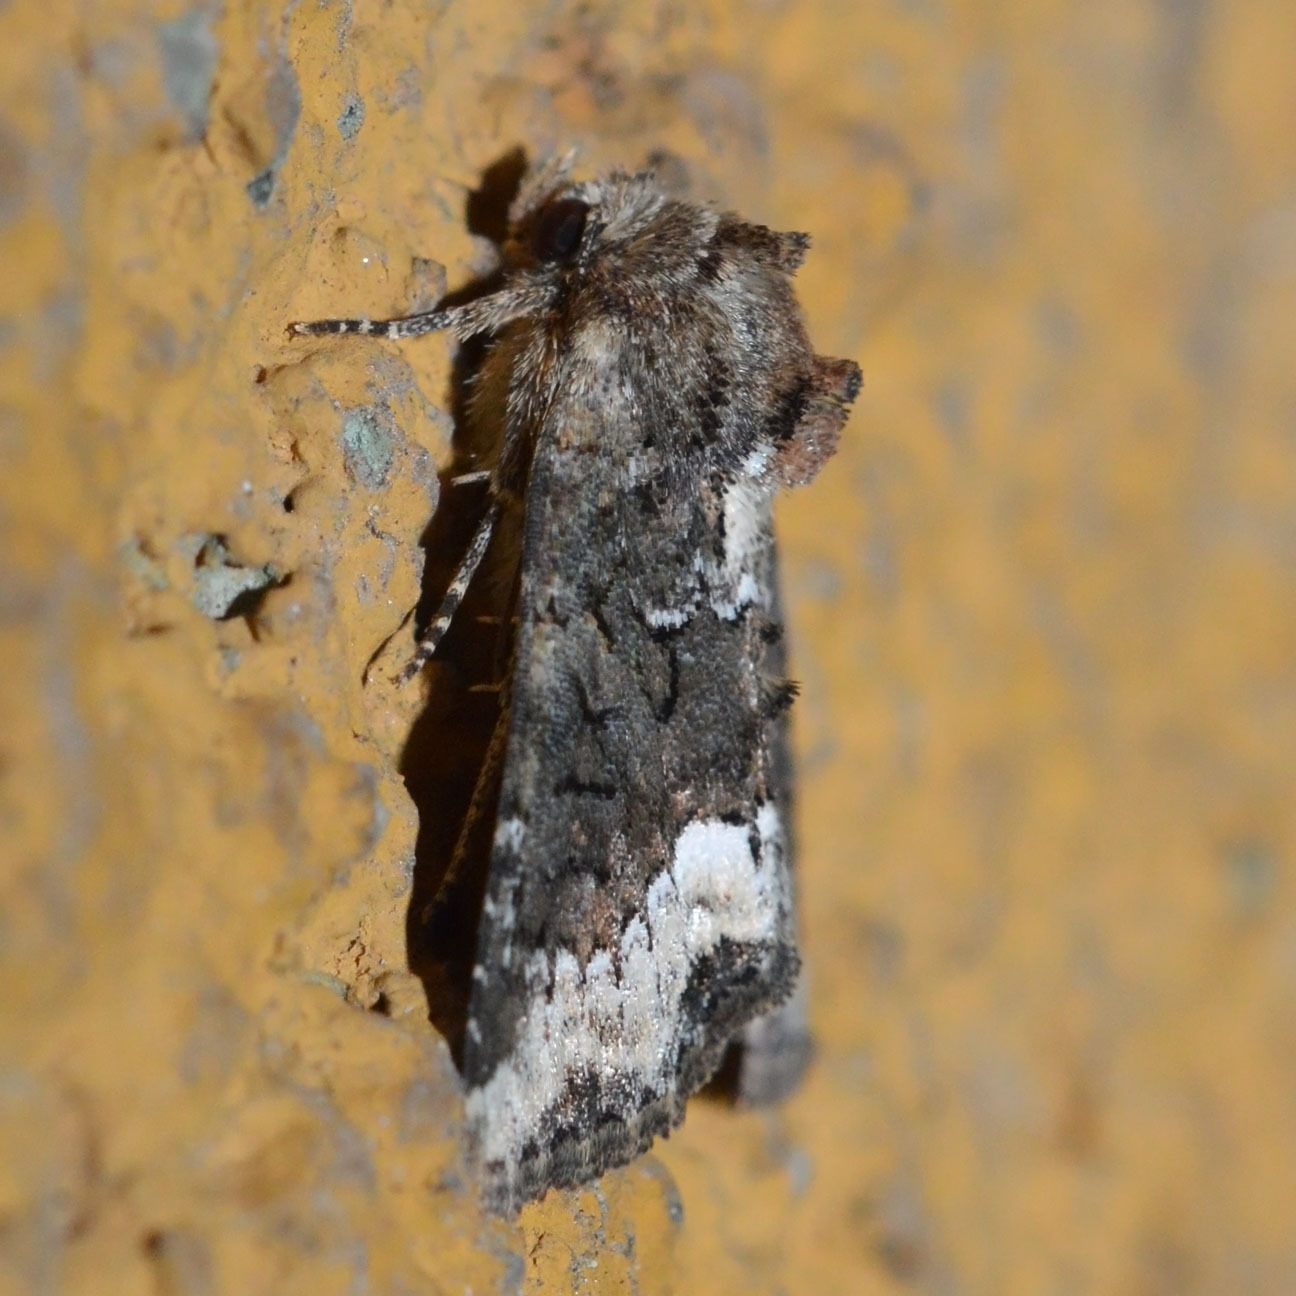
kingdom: Animalia
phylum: Arthropoda
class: Insecta
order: Lepidoptera
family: Noctuidae
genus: Oligia
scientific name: Oligia strigilis
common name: Marbled minor
